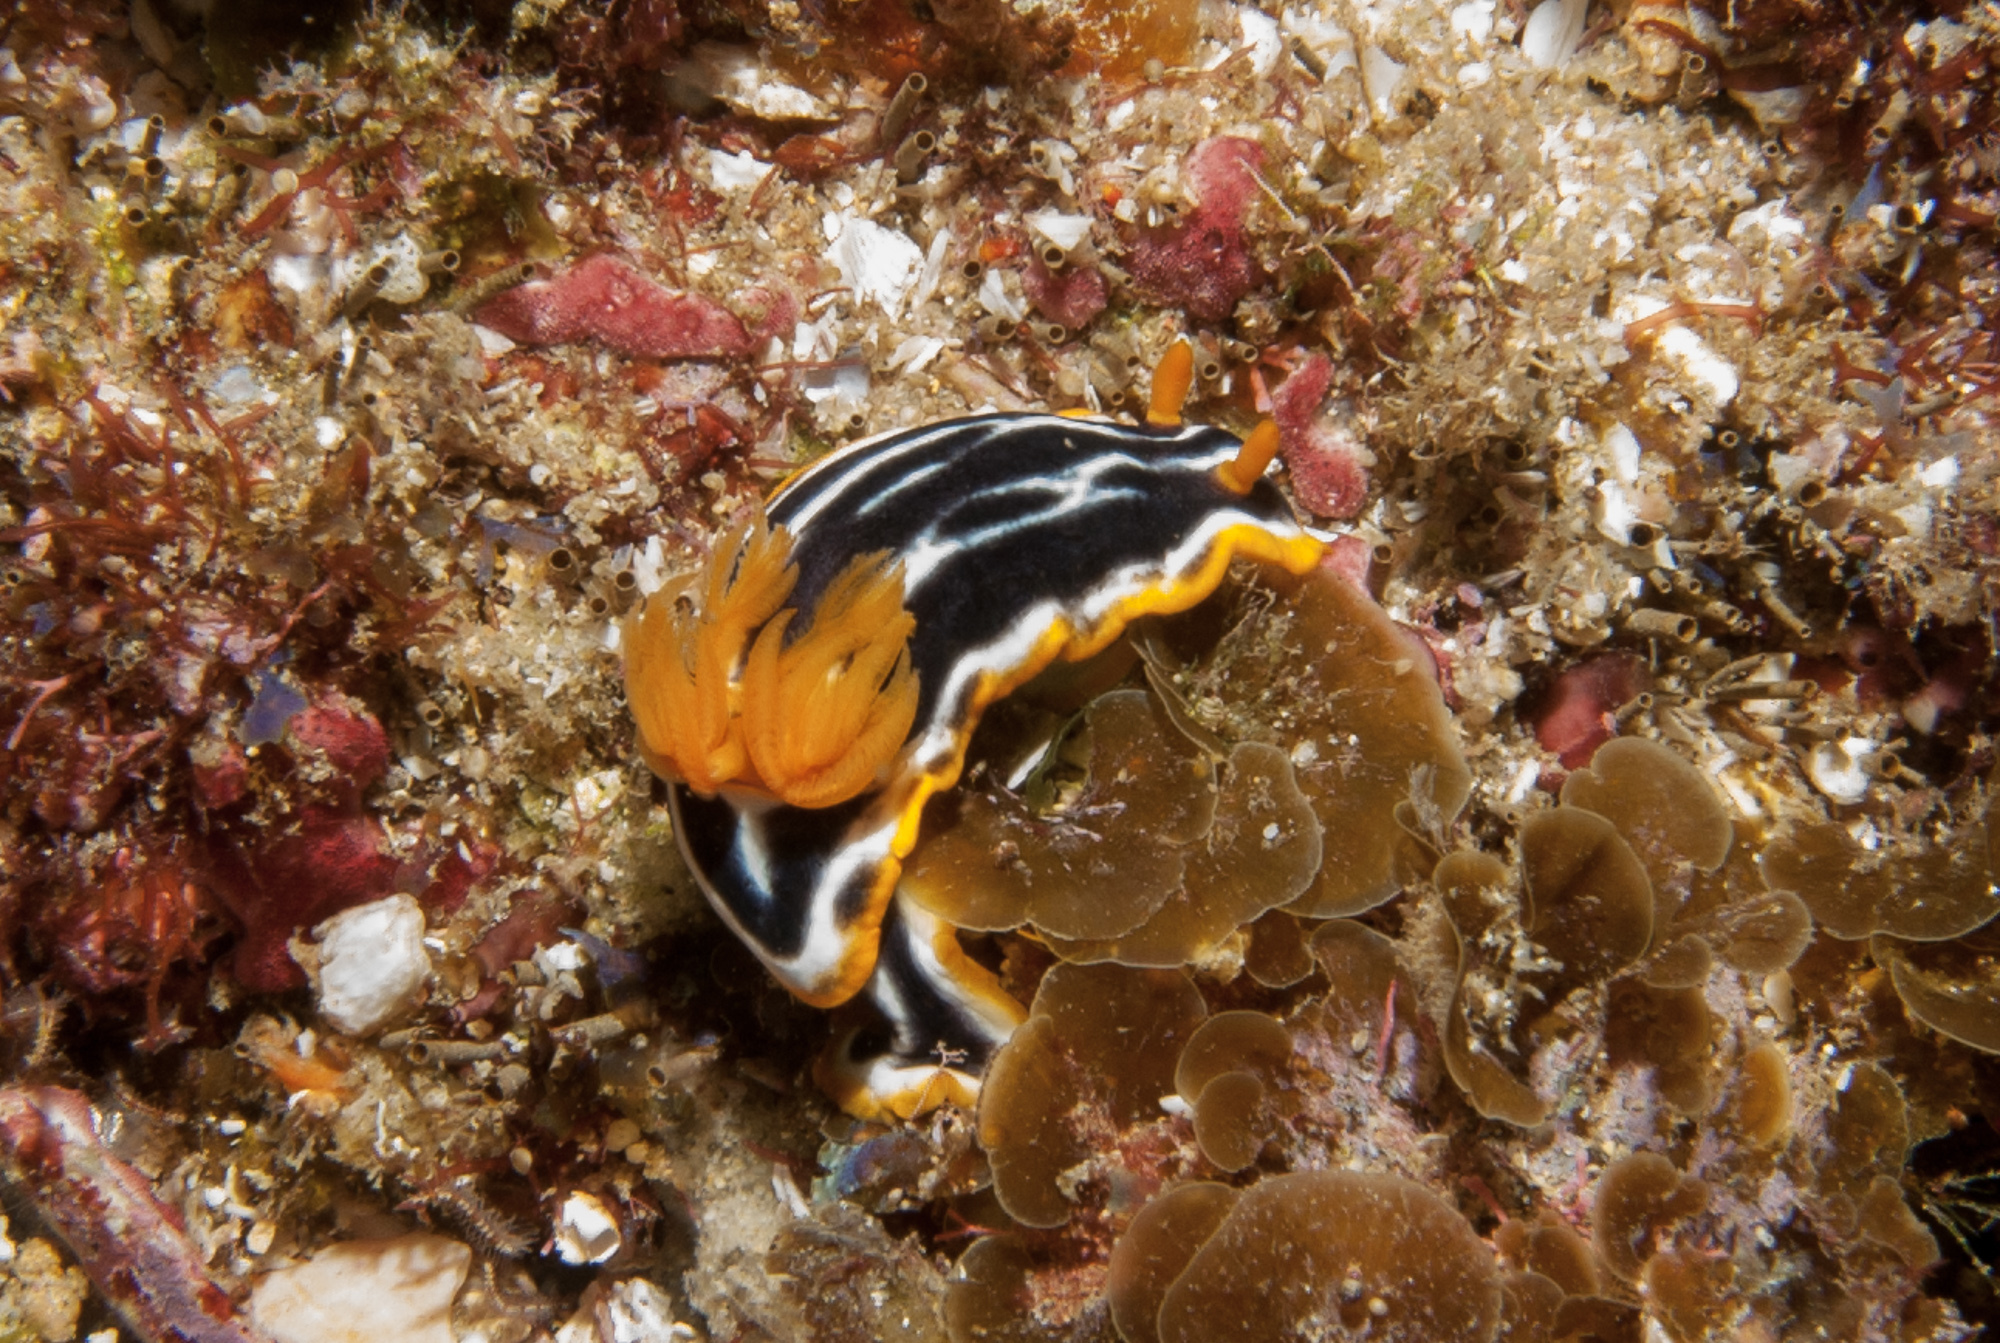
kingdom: Animalia
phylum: Mollusca
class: Gastropoda
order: Nudibranchia
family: Chromodorididae
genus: Chromodoris
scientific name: Chromodoris africana
